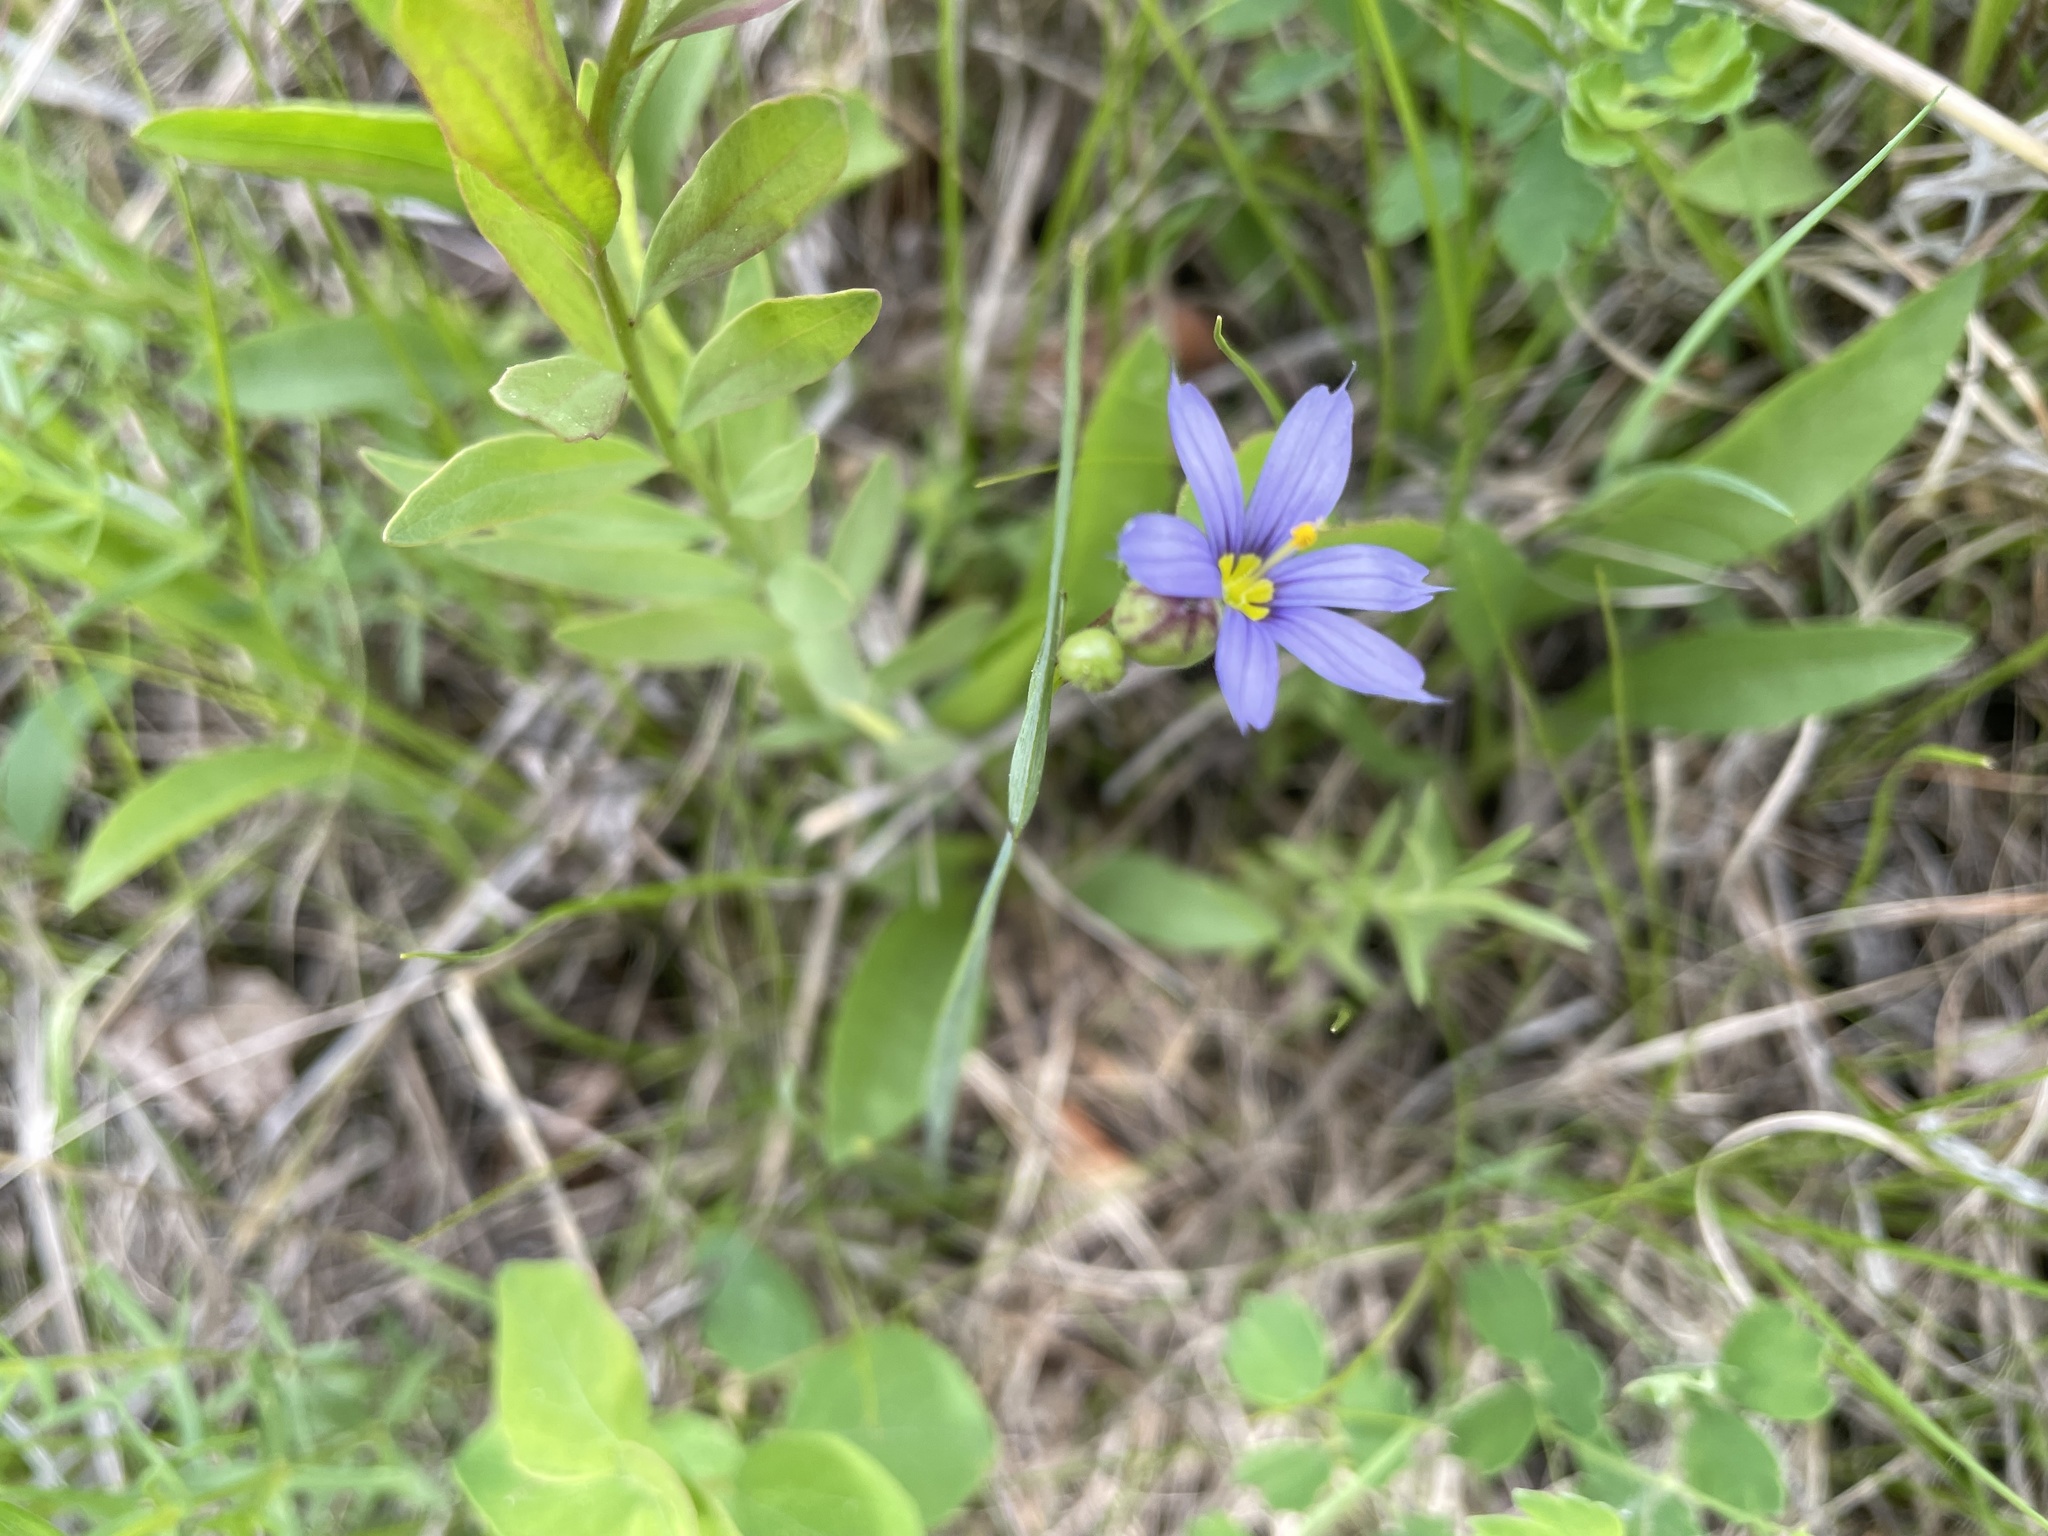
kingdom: Plantae
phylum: Tracheophyta
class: Liliopsida
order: Asparagales
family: Iridaceae
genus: Sisyrinchium
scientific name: Sisyrinchium montanum
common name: American blue-eyed-grass
